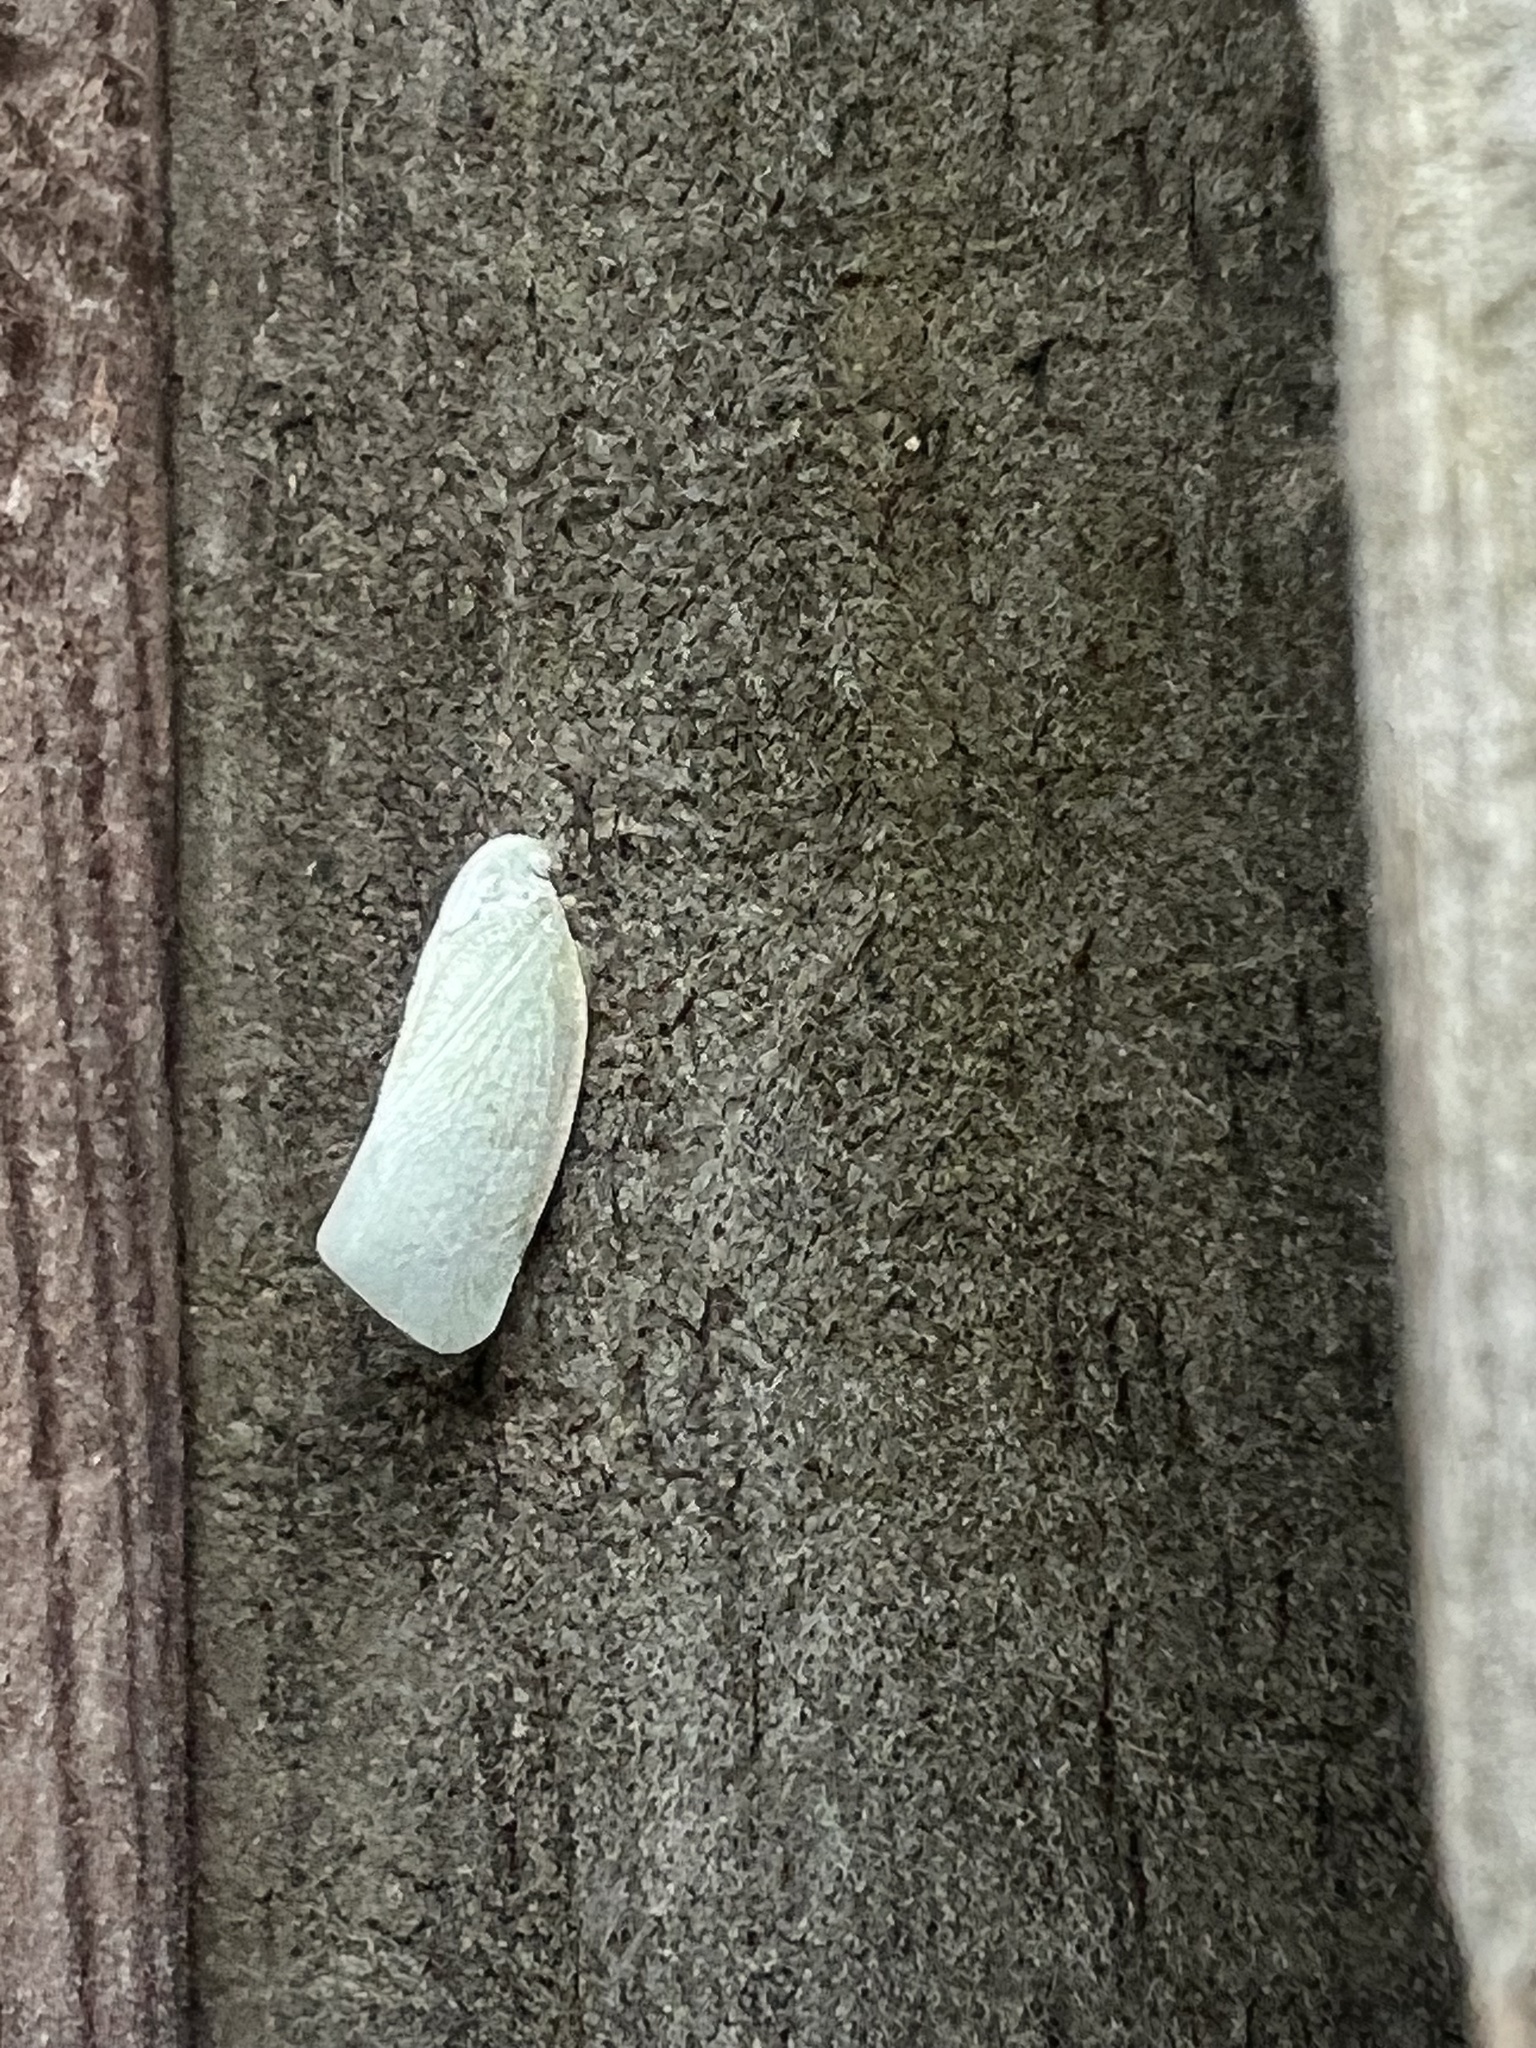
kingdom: Animalia
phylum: Arthropoda
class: Insecta
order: Hemiptera
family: Flatidae
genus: Flatormenis
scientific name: Flatormenis proxima
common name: Northern flatid planthopper
